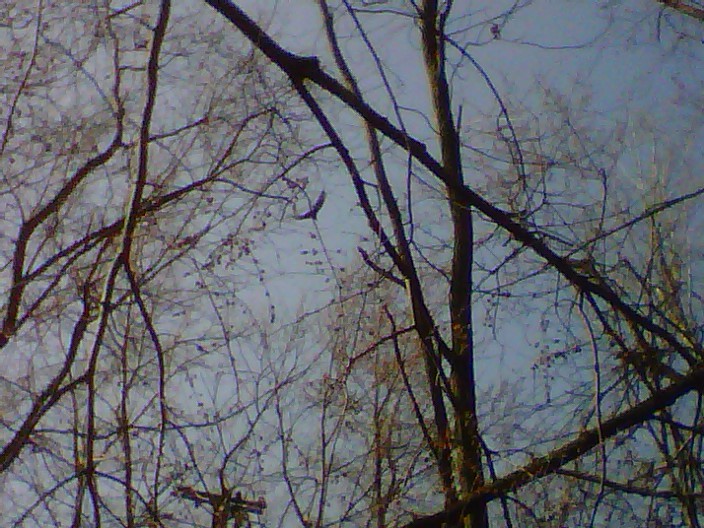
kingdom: Animalia
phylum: Chordata
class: Aves
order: Accipitriformes
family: Cathartidae
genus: Cathartes
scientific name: Cathartes aura
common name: Turkey vulture
